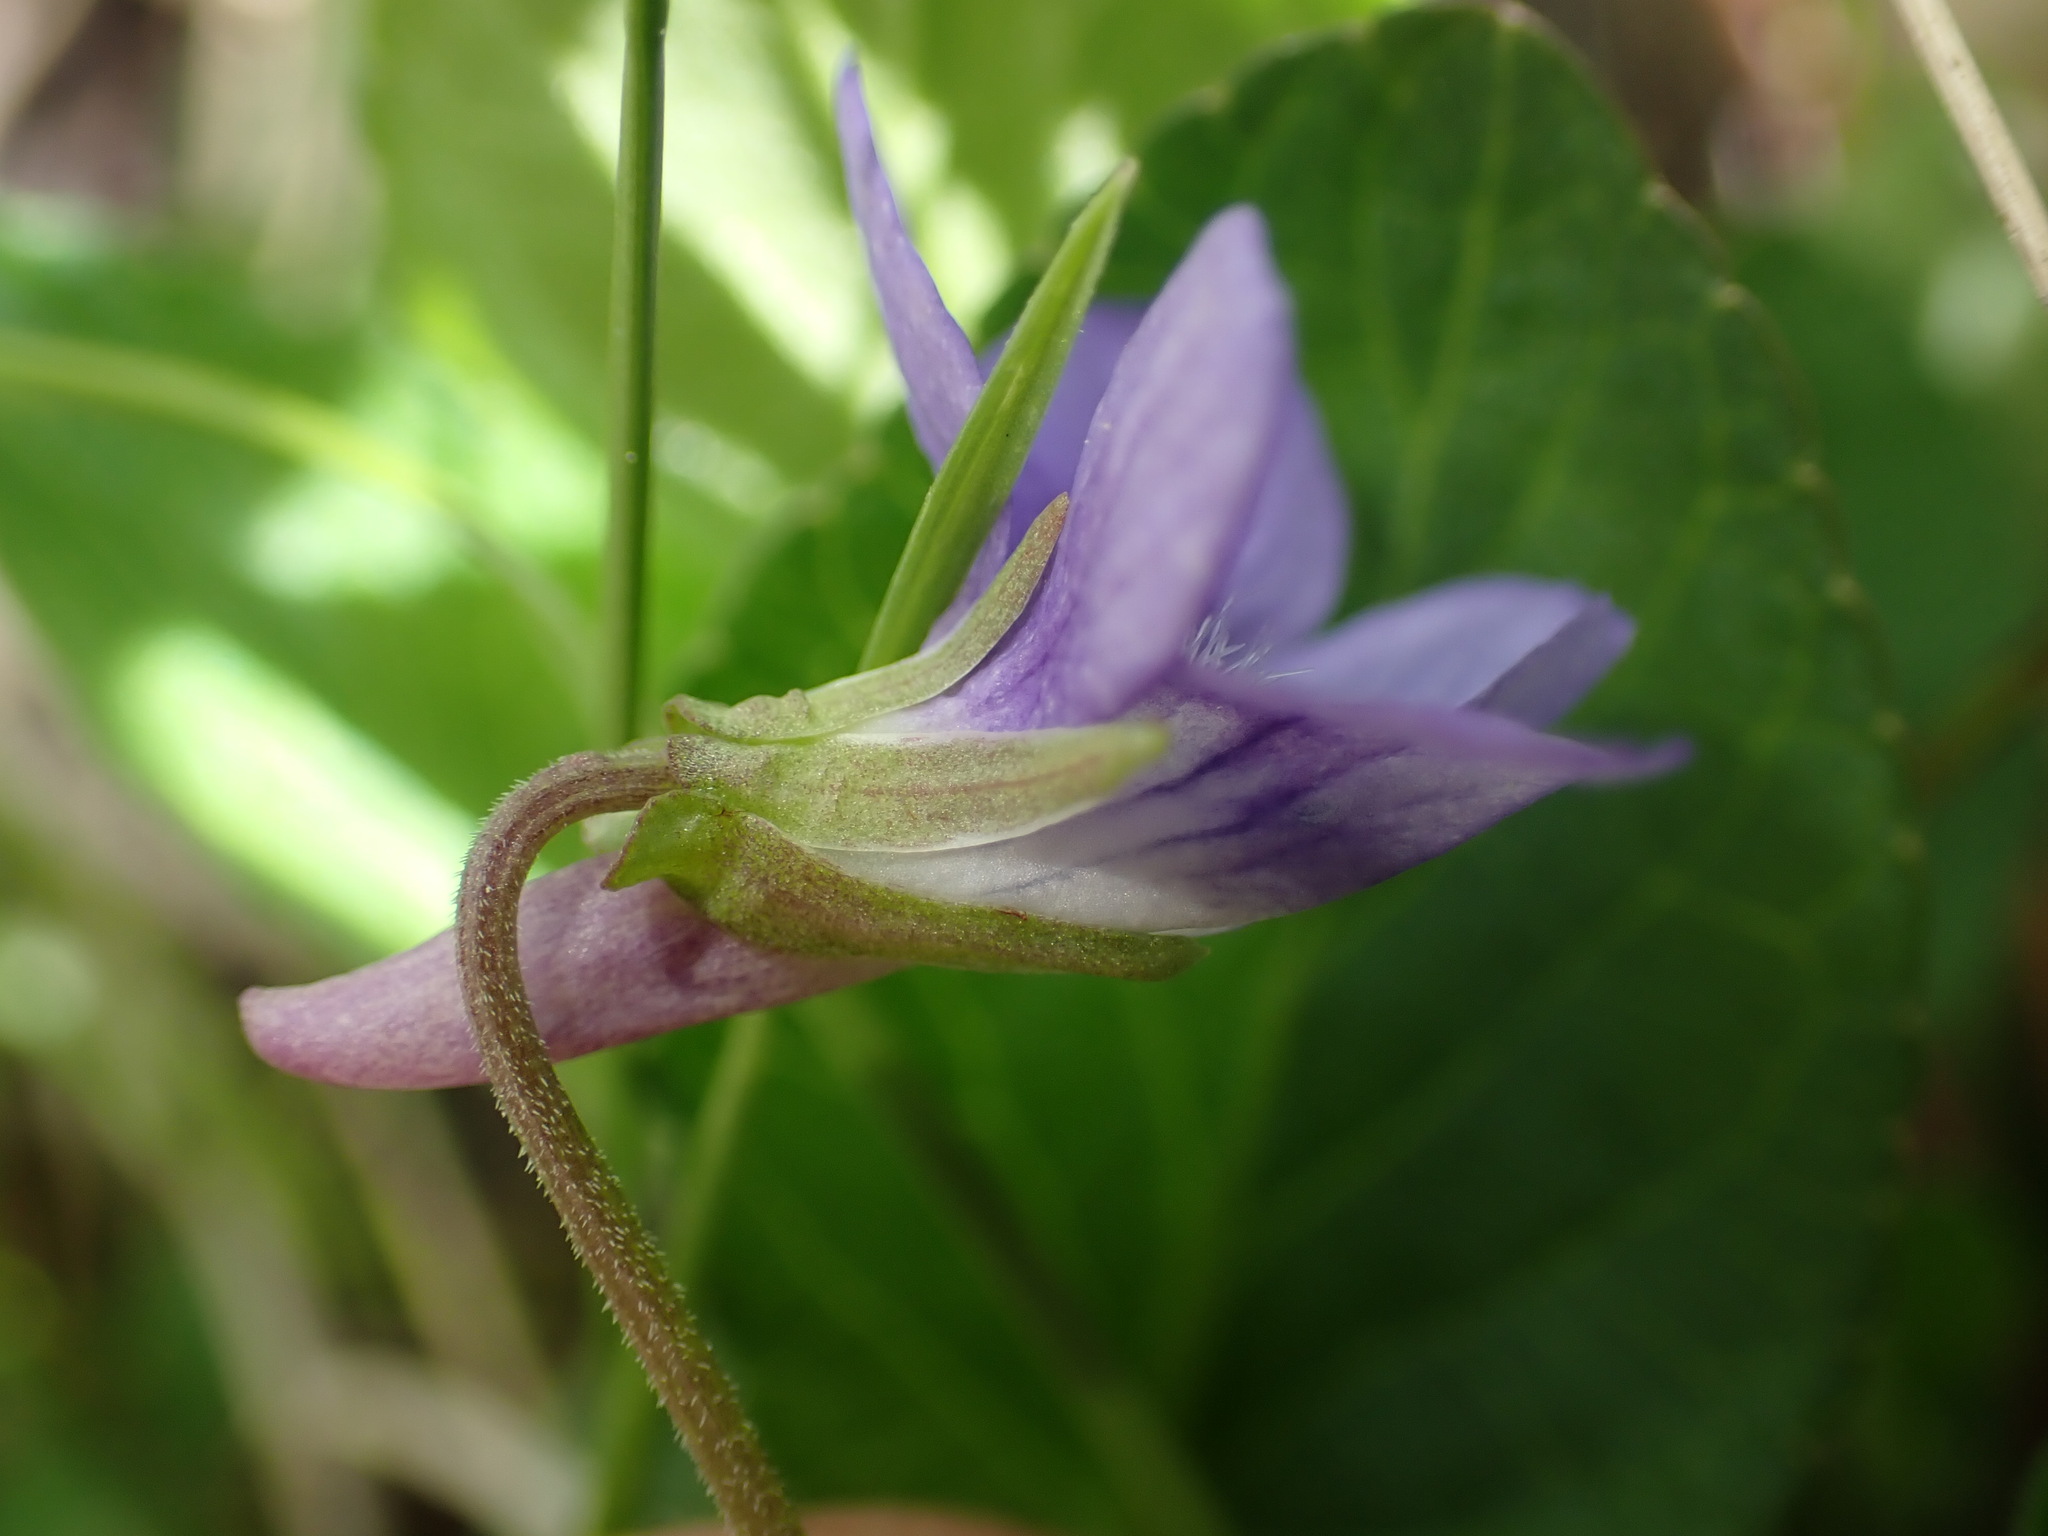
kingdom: Plantae
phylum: Tracheophyta
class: Magnoliopsida
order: Malpighiales
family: Violaceae
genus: Viola
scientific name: Viola adunca
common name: Sand violet
